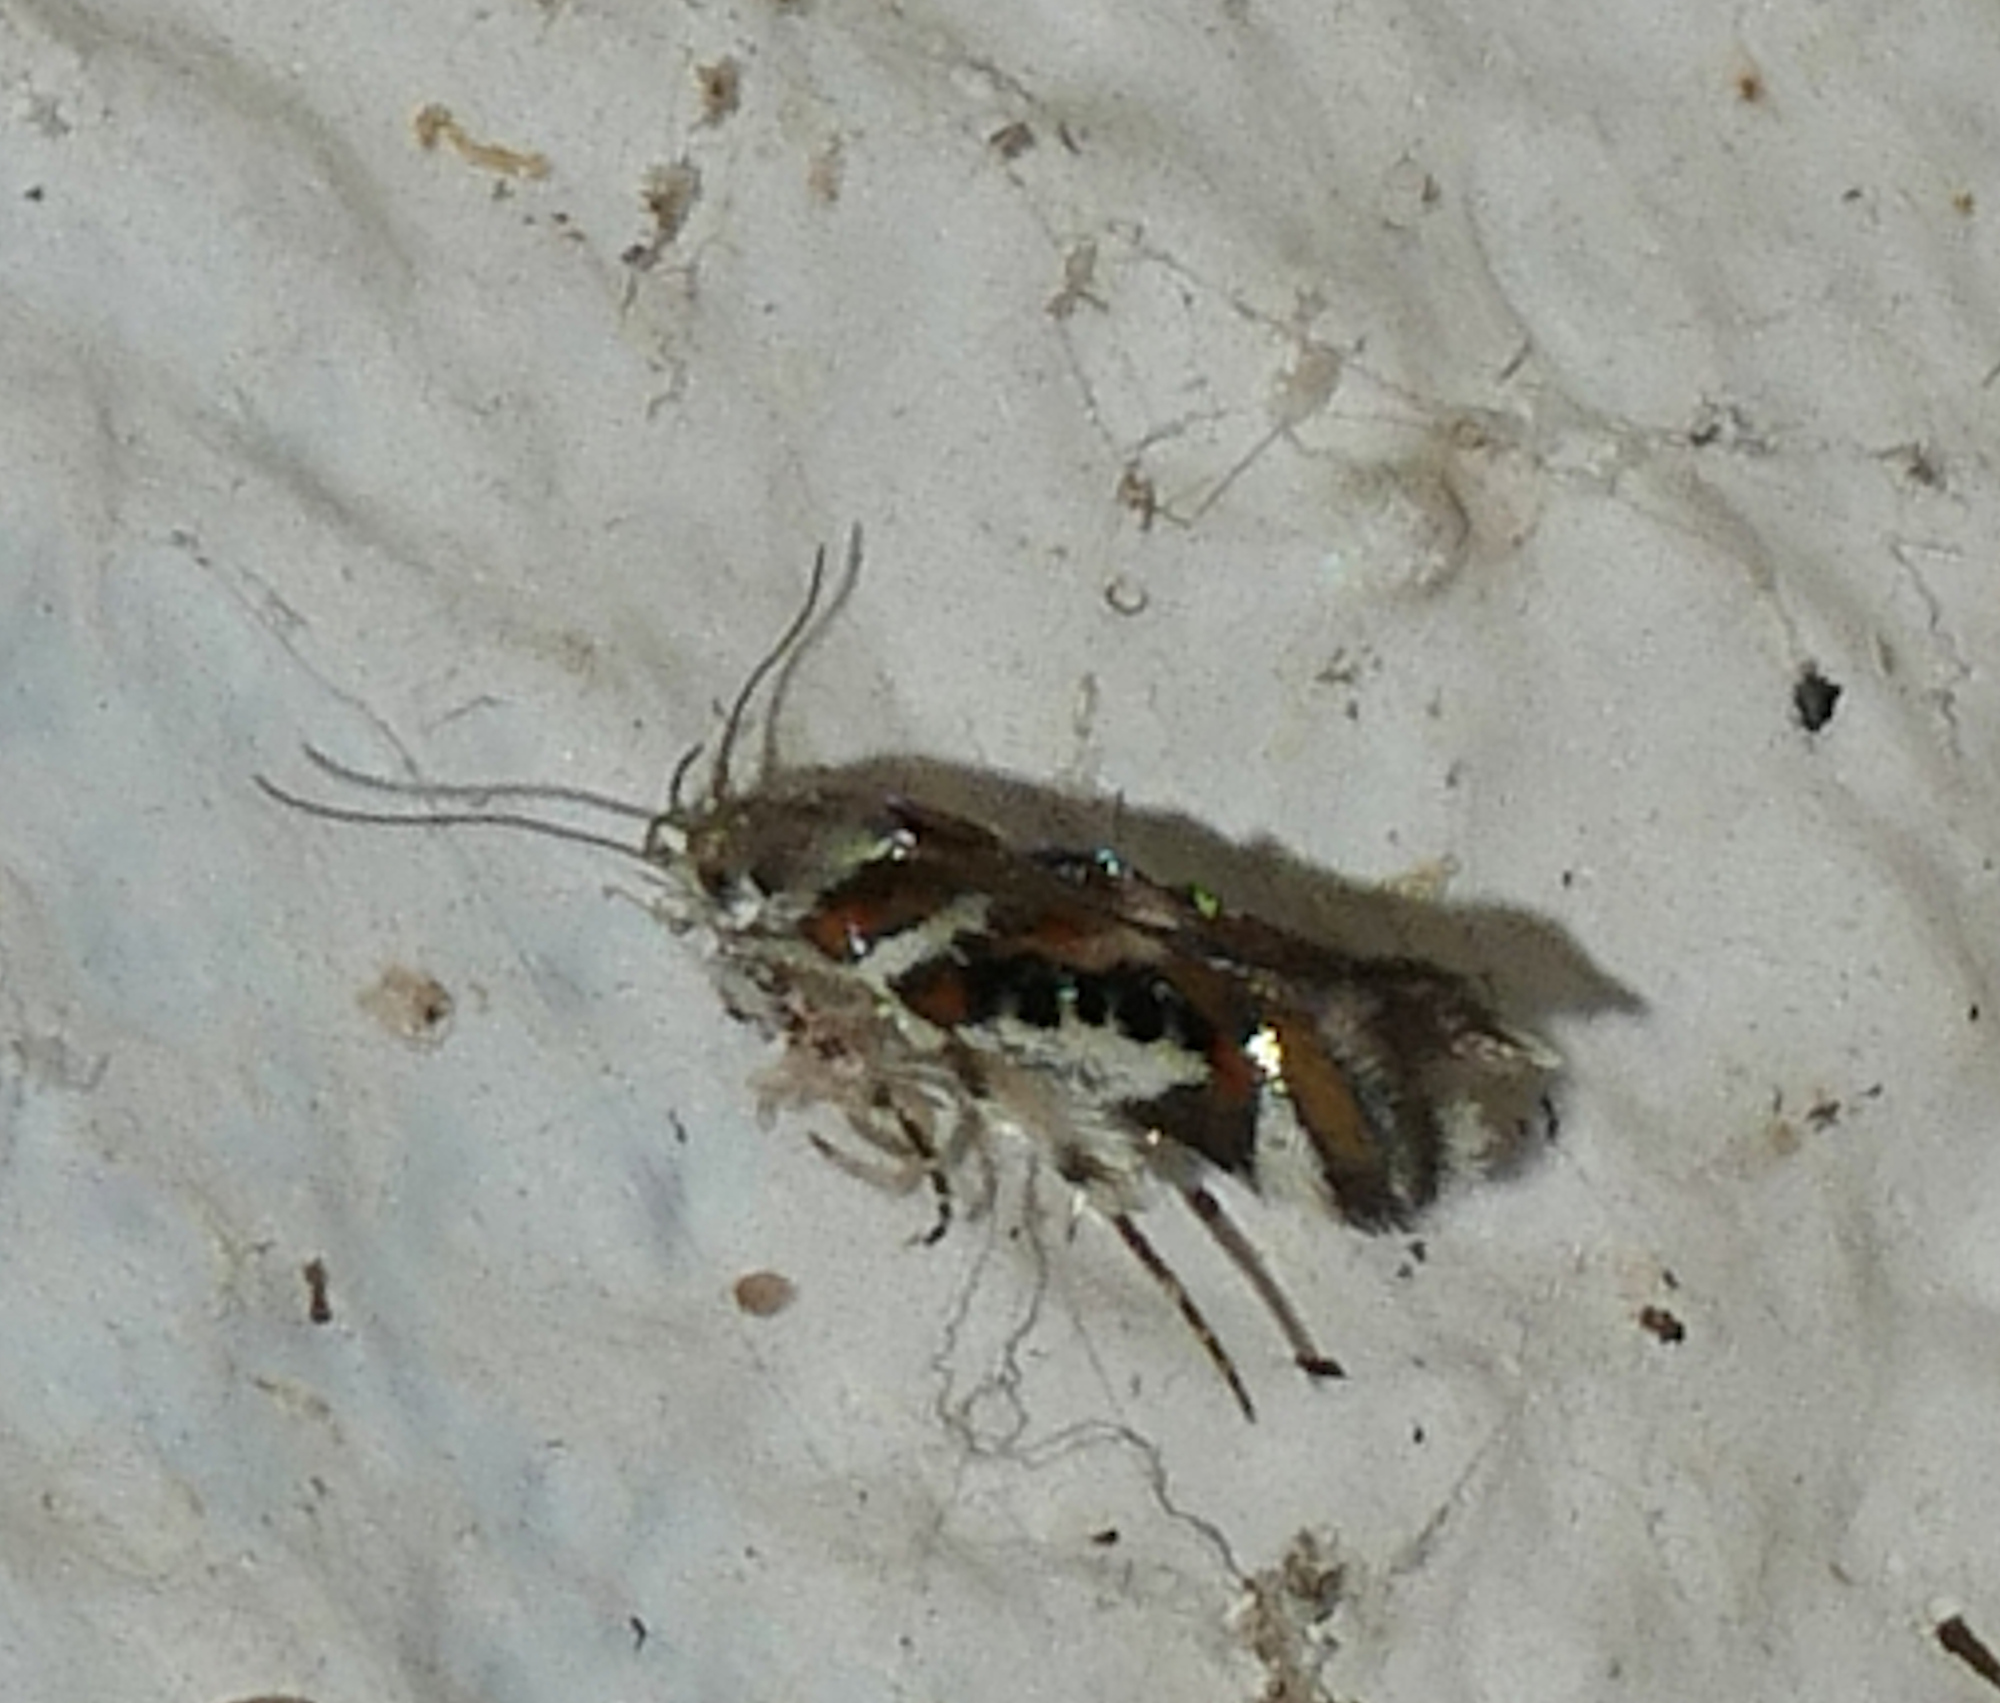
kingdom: Animalia
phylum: Arthropoda
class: Insecta
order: Lepidoptera
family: Gelechiidae
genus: Aristotelia
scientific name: Aristotelia elegantella
